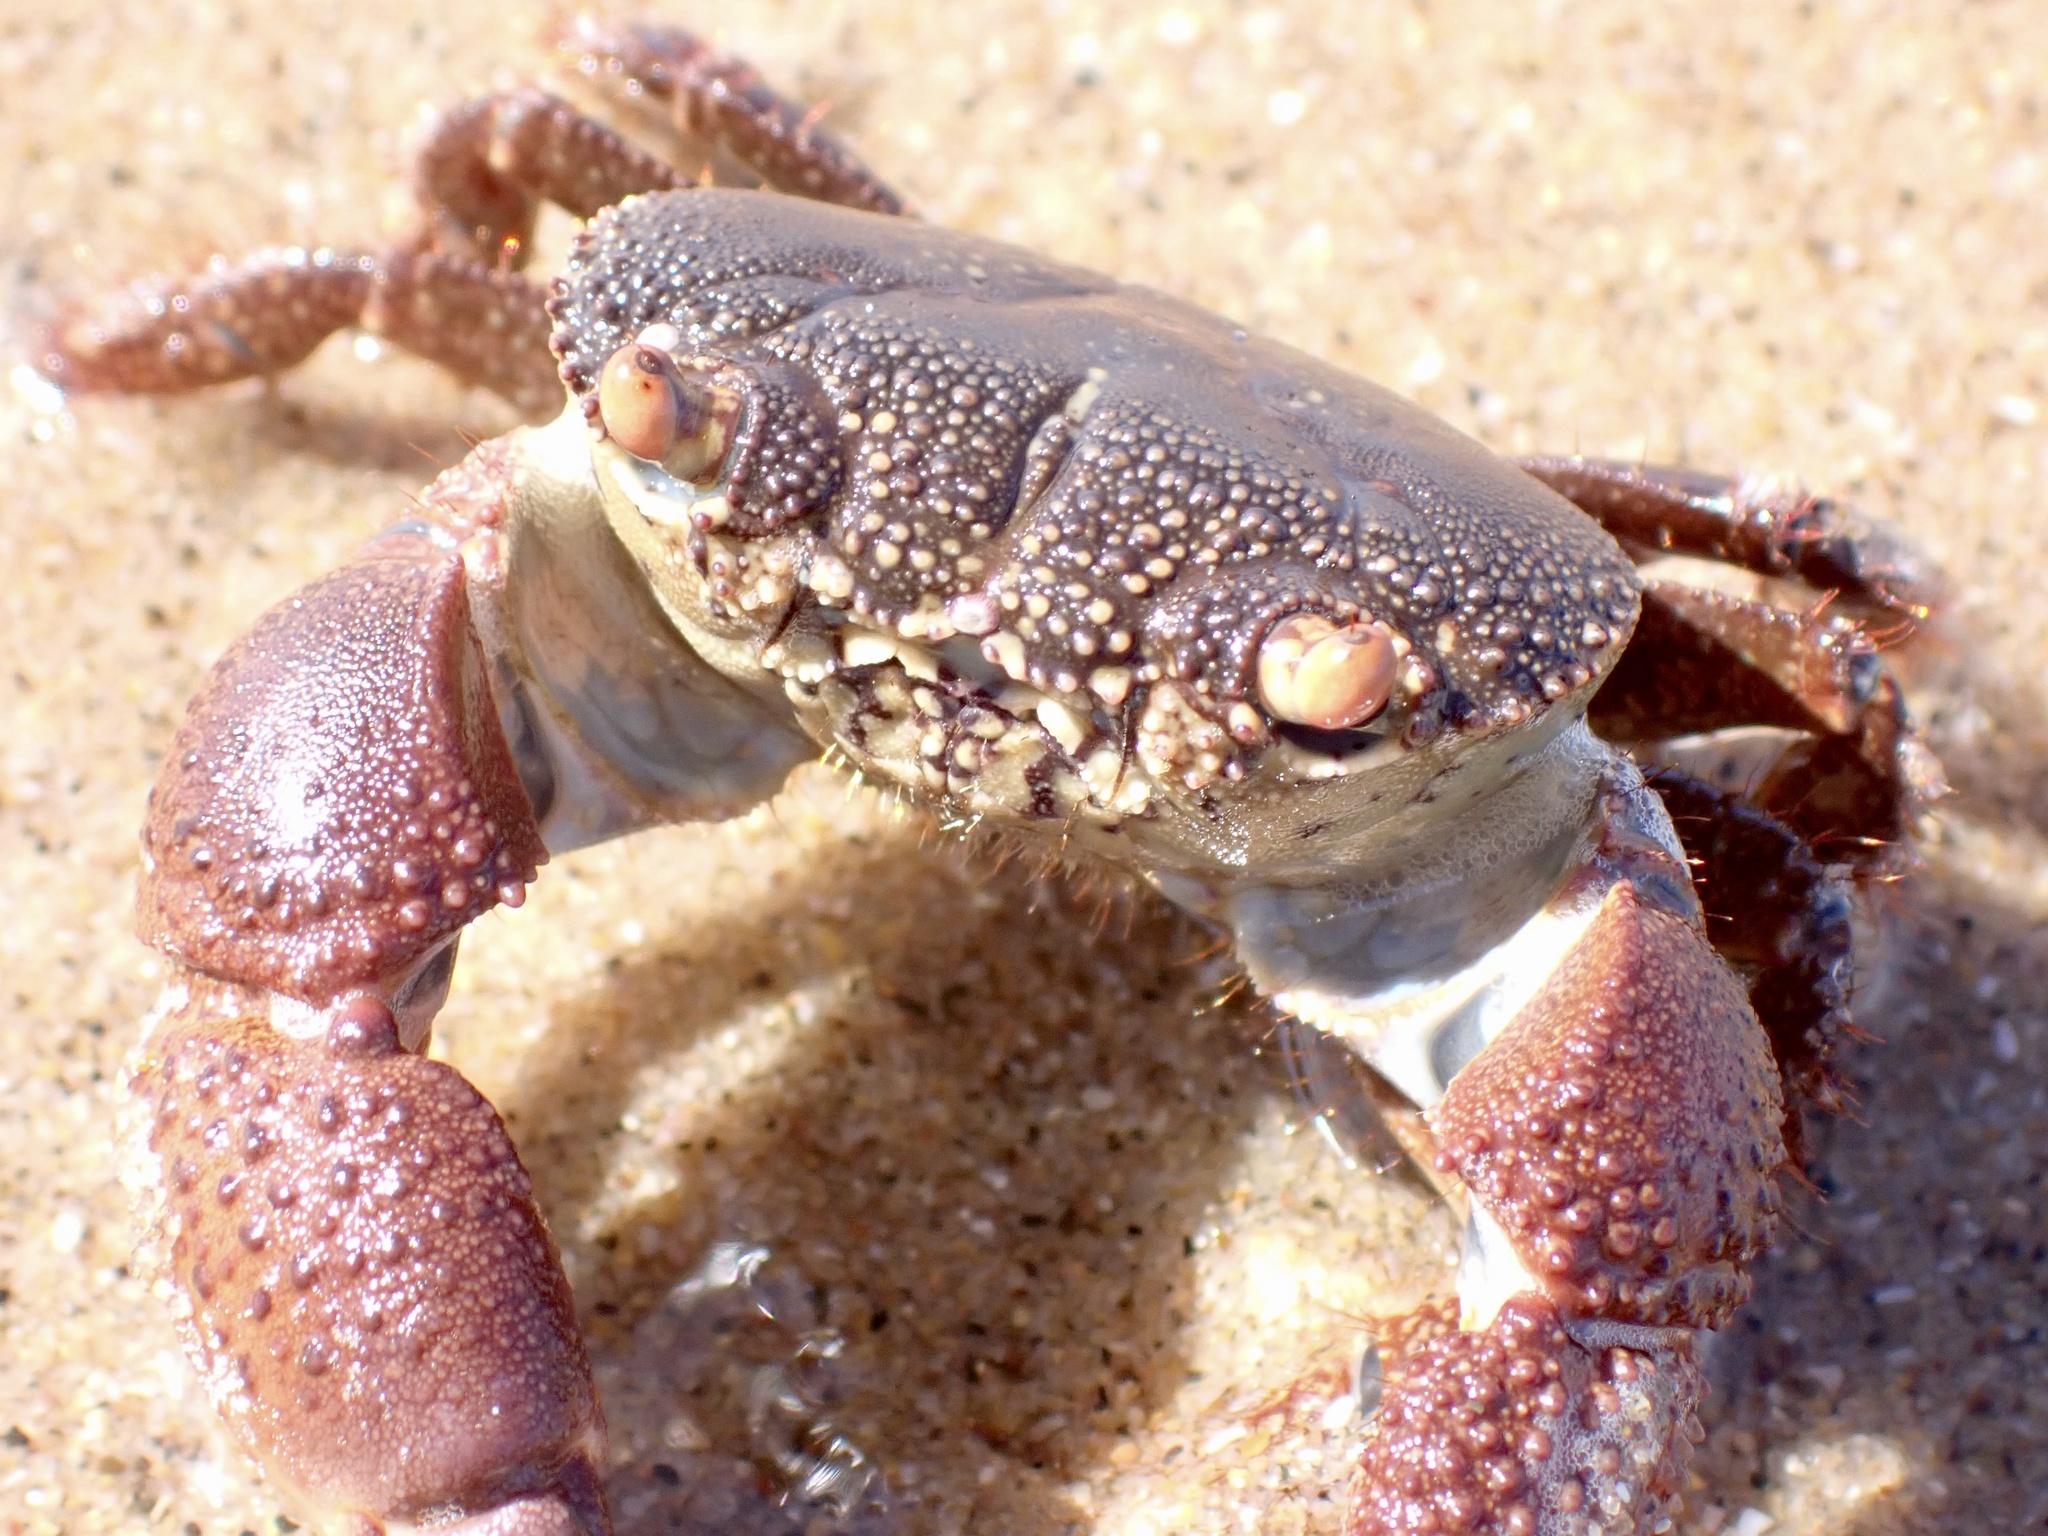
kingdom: Animalia
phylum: Arthropoda
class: Malacostraca
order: Decapoda
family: Eriphiidae
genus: Eriphia
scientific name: Eriphia smithii
